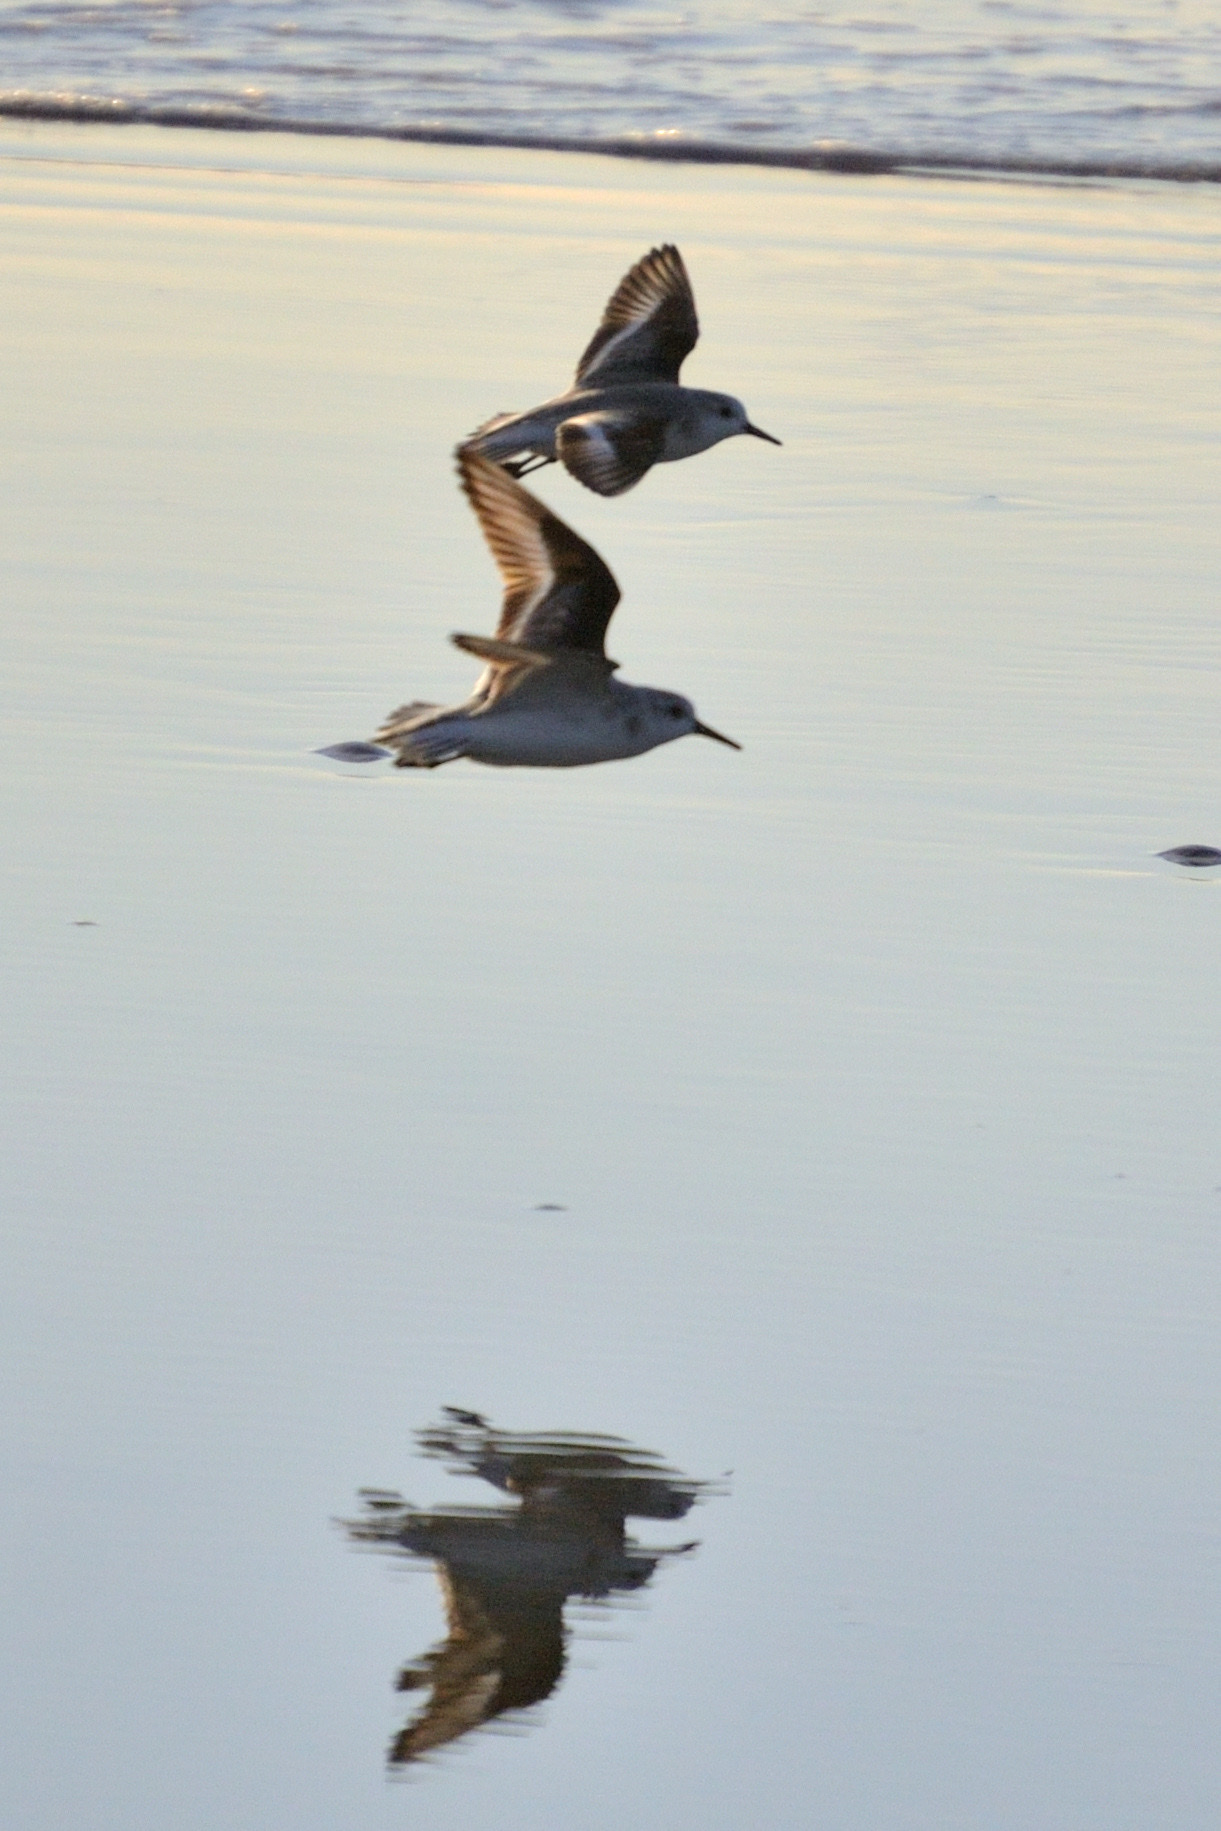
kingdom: Animalia
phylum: Chordata
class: Aves
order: Charadriiformes
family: Scolopacidae
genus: Calidris
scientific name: Calidris alba
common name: Sanderling
